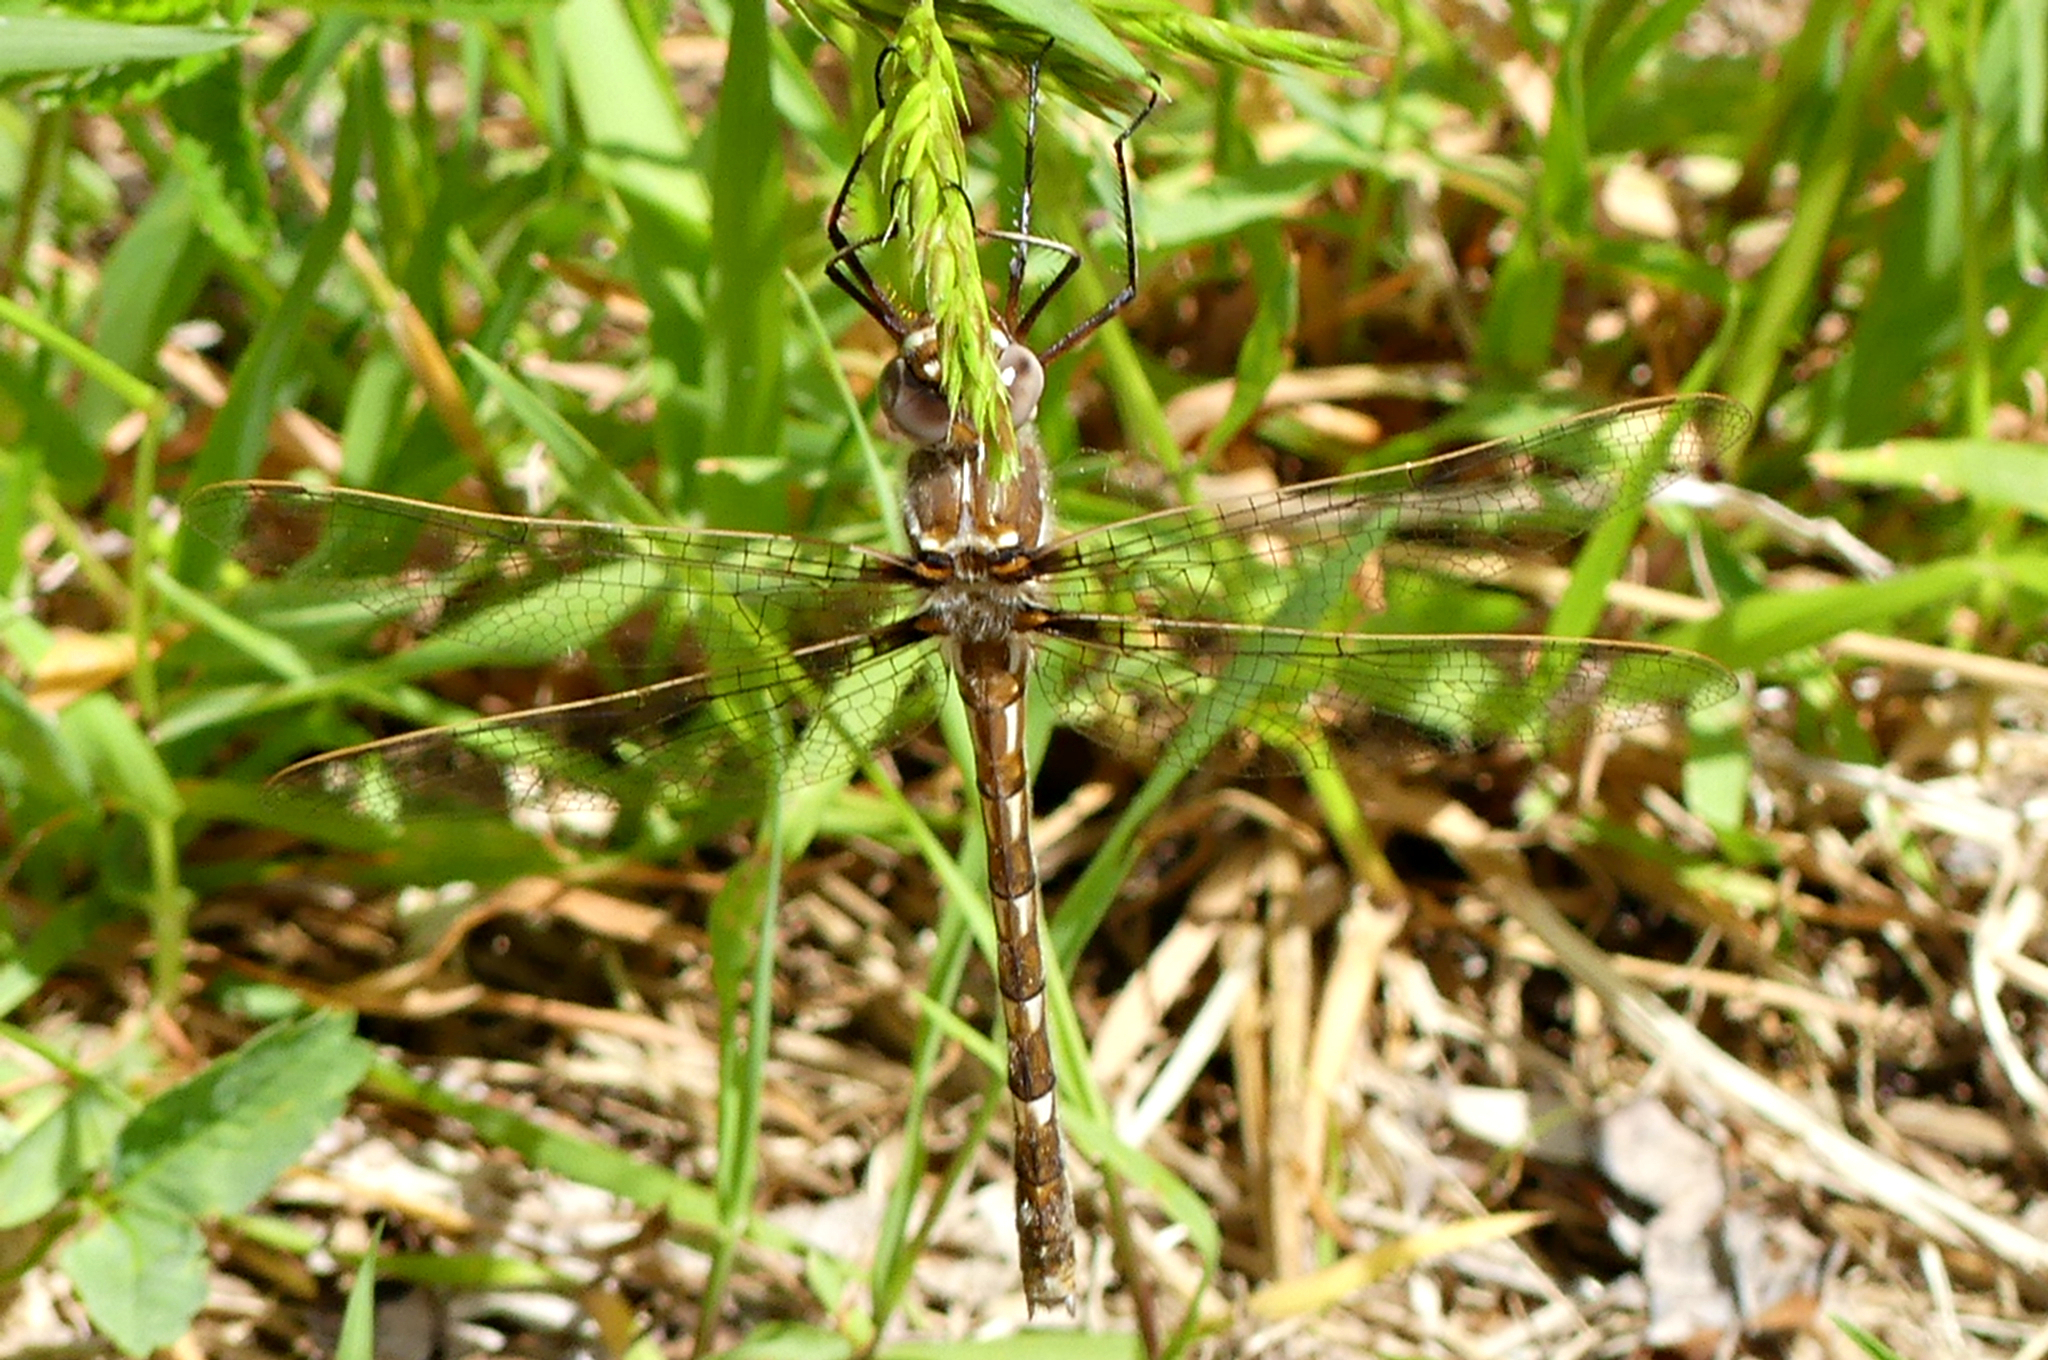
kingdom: Animalia
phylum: Arthropoda
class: Insecta
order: Odonata
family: Macromiidae
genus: Didymops
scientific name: Didymops transversa
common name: Stream cruiser
